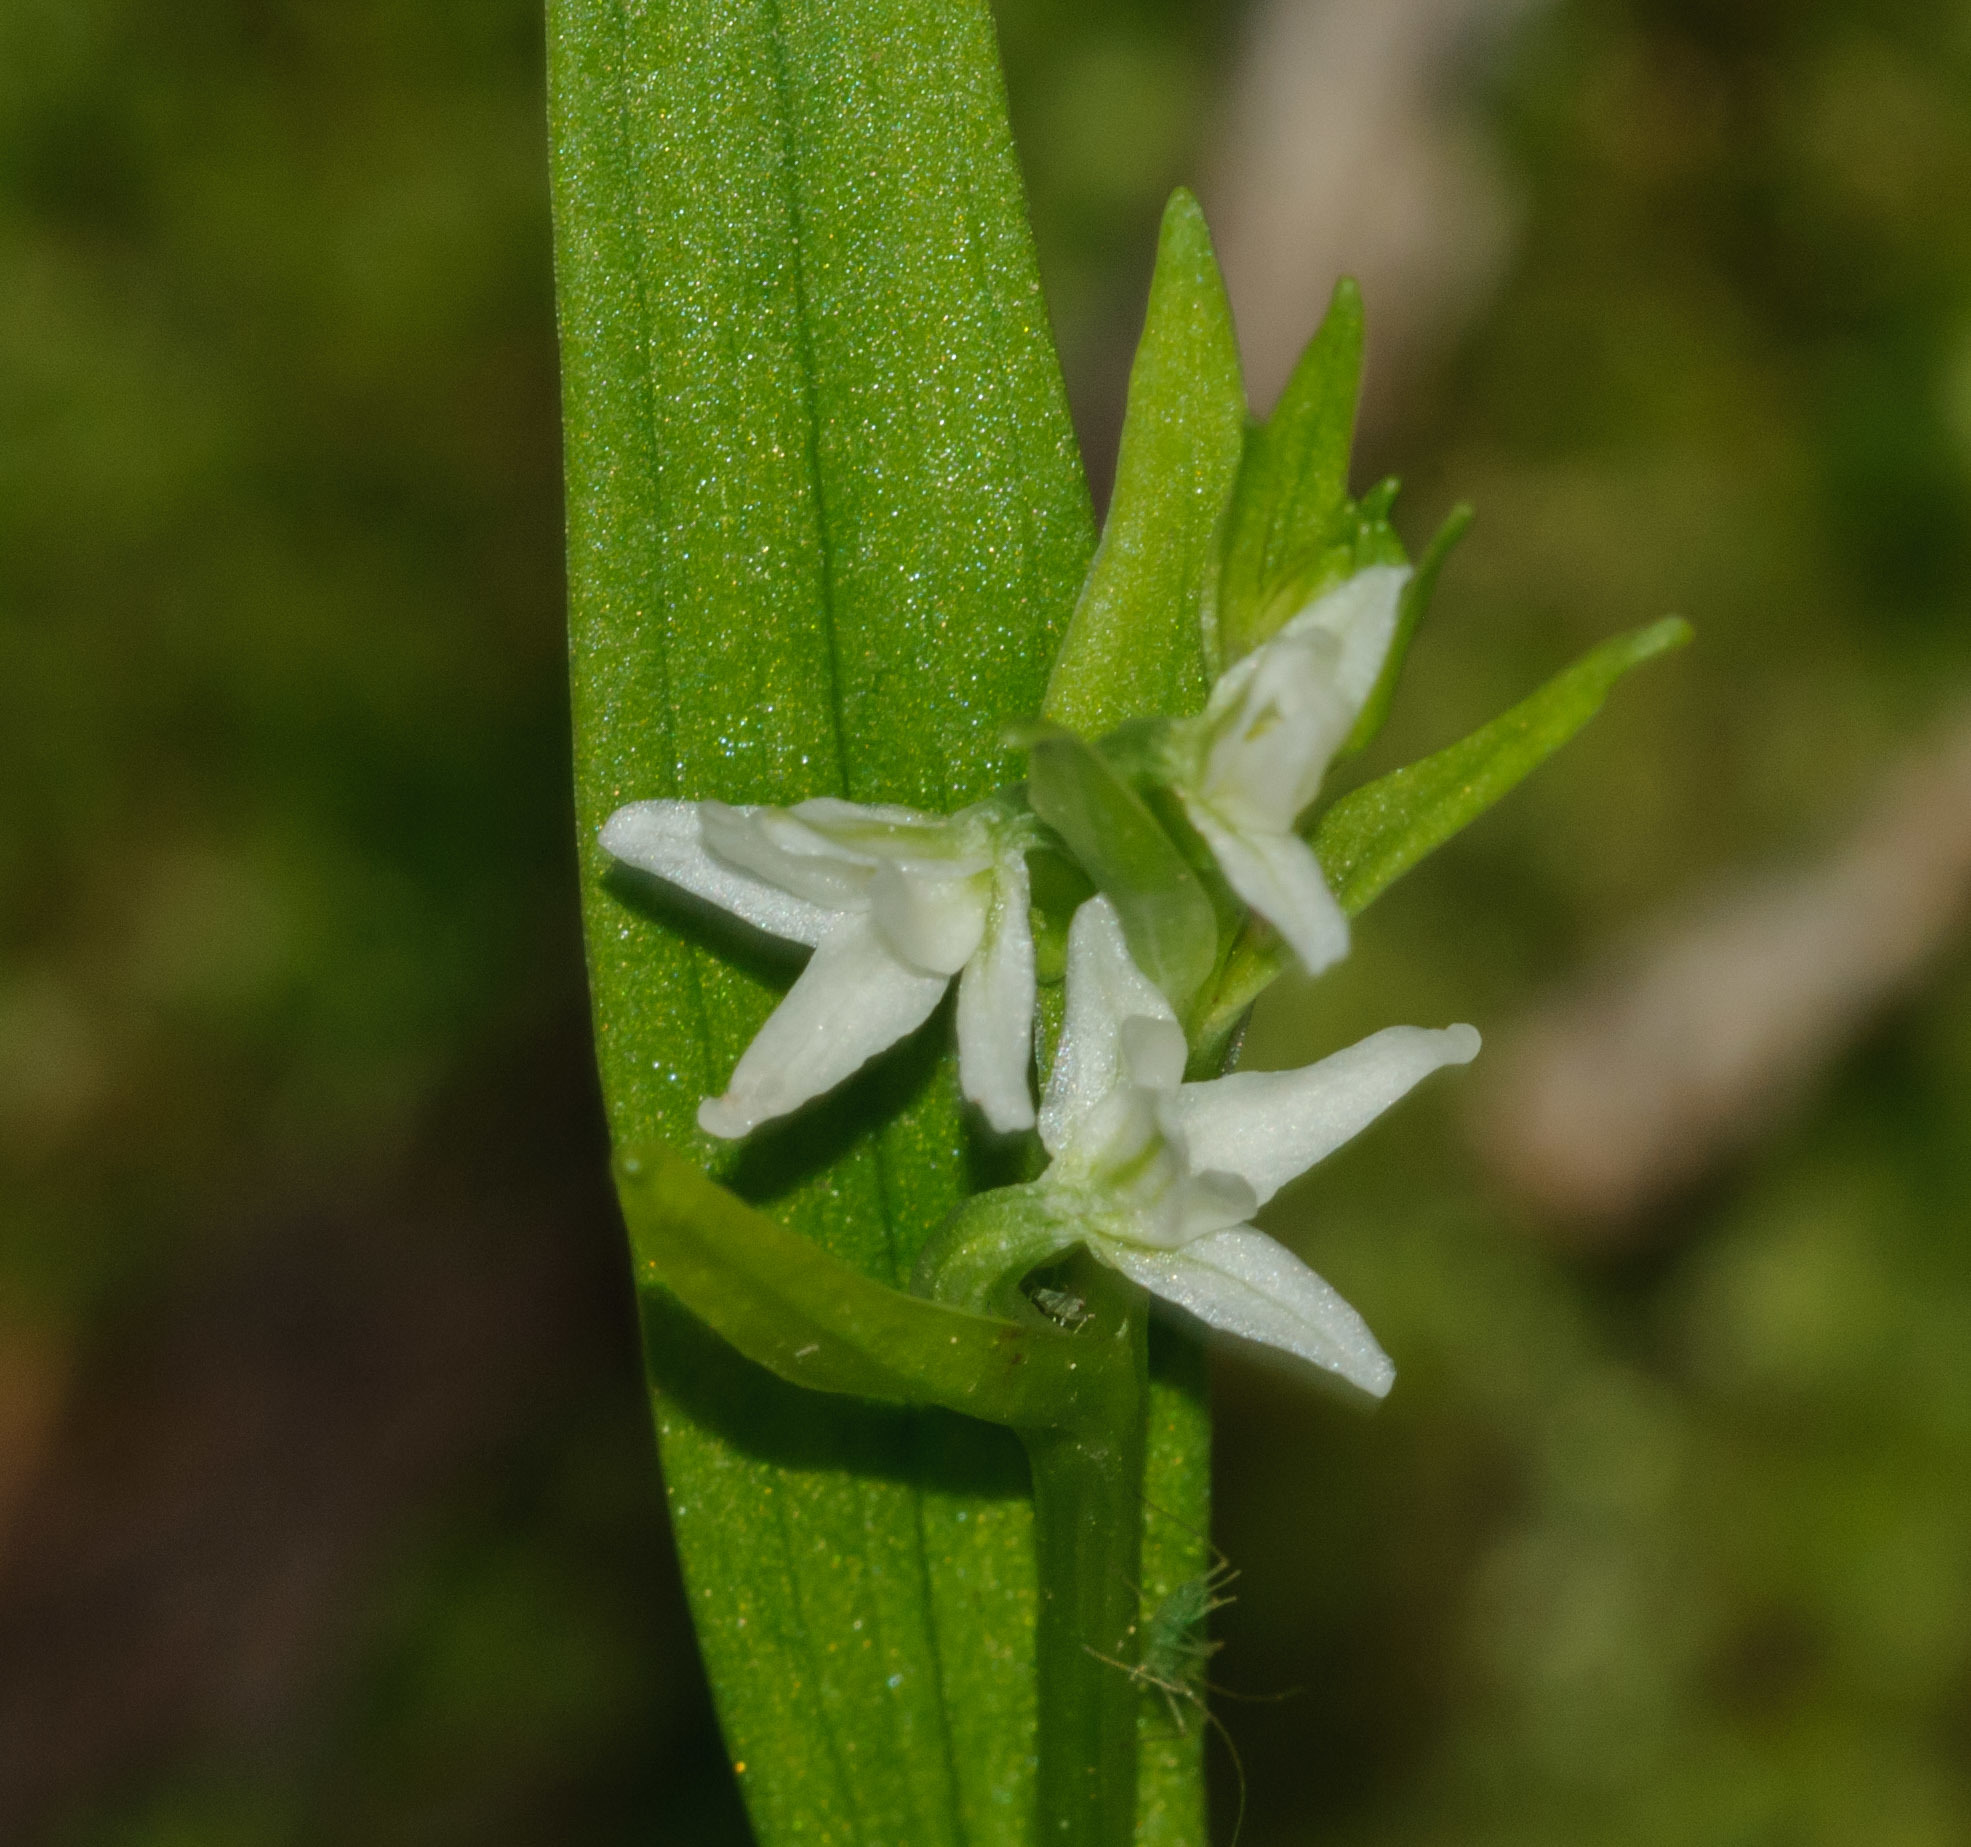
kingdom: Plantae
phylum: Tracheophyta
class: Liliopsida
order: Asparagales
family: Orchidaceae
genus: Platanthera
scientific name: Platanthera dilatata
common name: Bog candles
